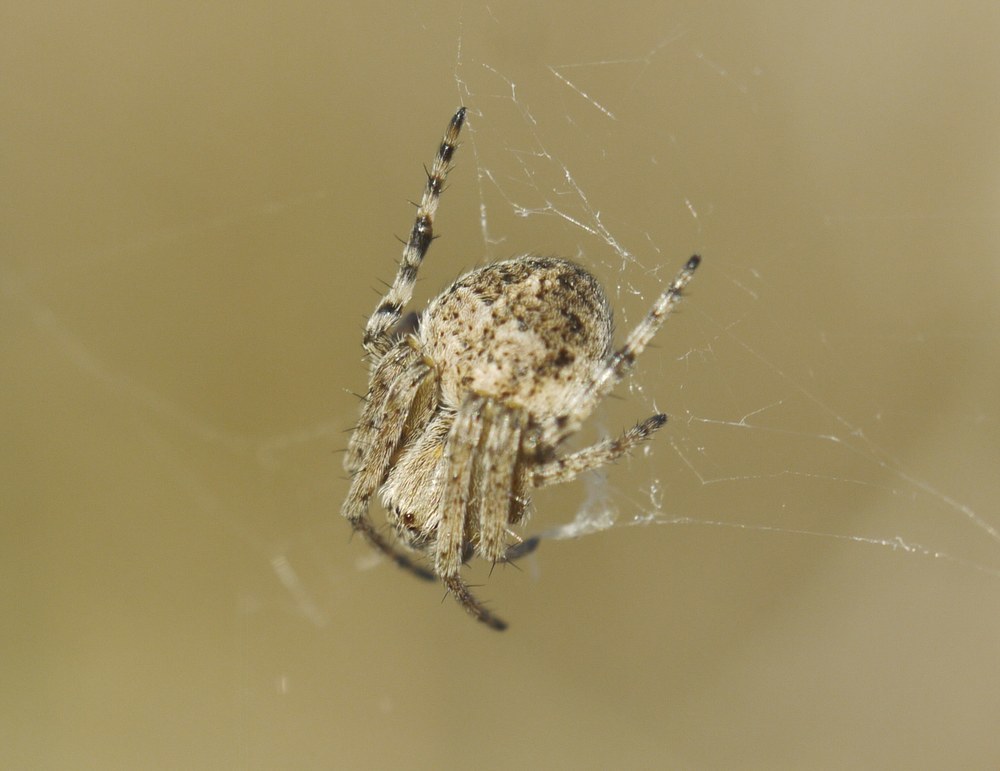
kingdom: Animalia
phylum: Arthropoda
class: Arachnida
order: Araneae
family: Araneidae
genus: Agalenatea
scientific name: Agalenatea redii
